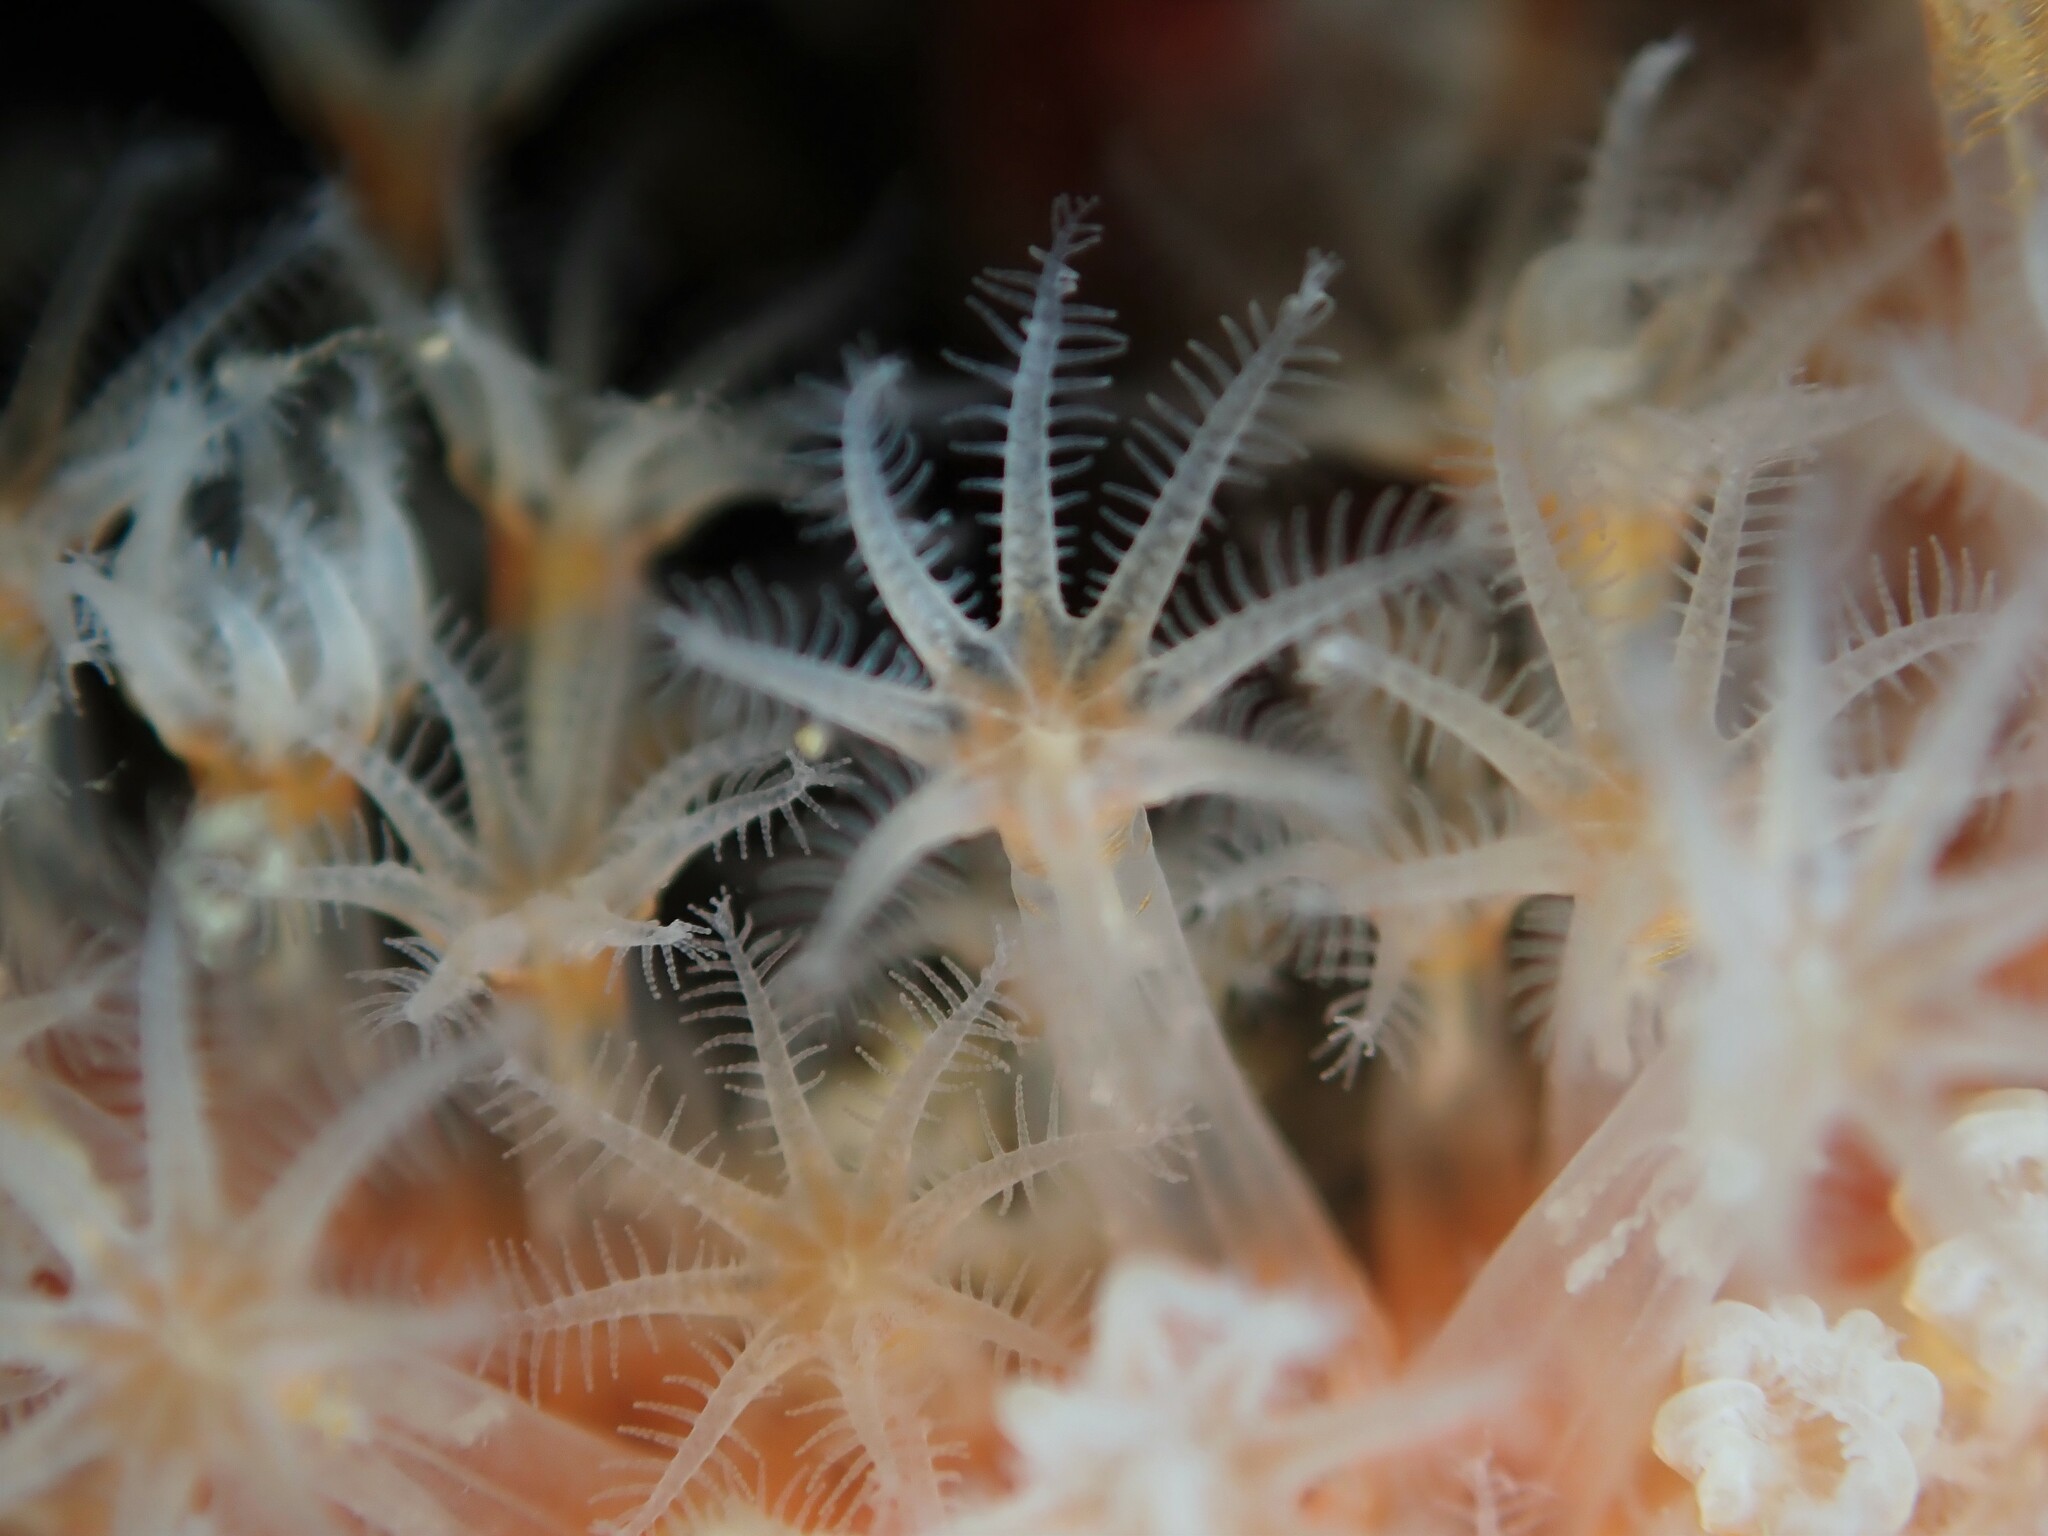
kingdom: Animalia
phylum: Cnidaria
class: Anthozoa
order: Malacalcyonacea
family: Alcyoniidae
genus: Ushanaia
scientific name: Ushanaia fervens
